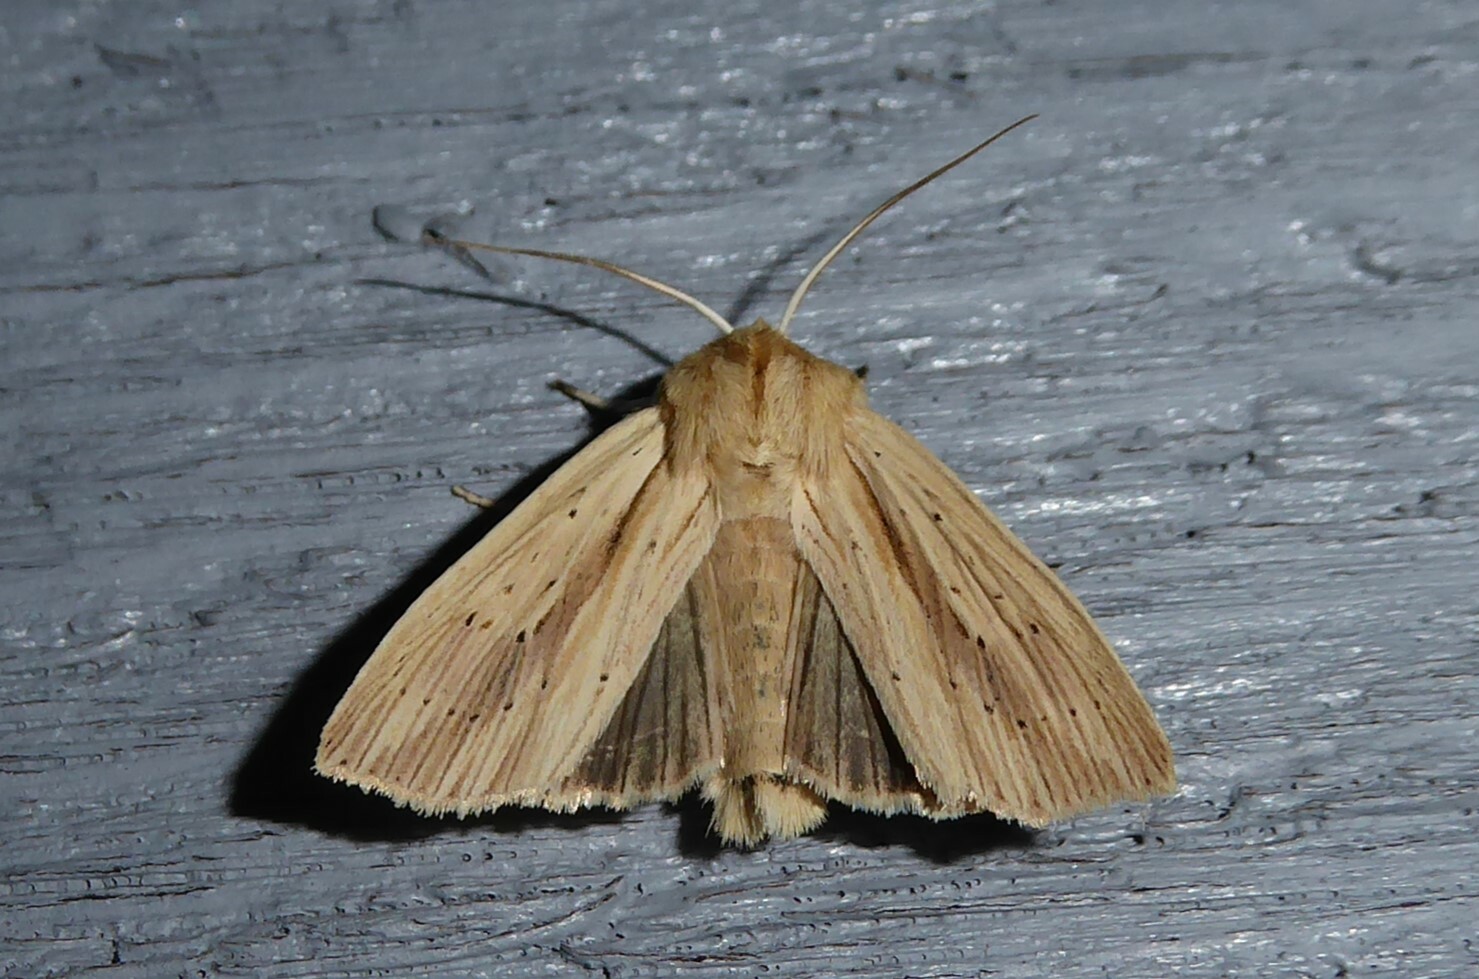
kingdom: Animalia
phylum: Arthropoda
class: Insecta
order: Lepidoptera
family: Noctuidae
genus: Ichneutica
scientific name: Ichneutica semivittata
